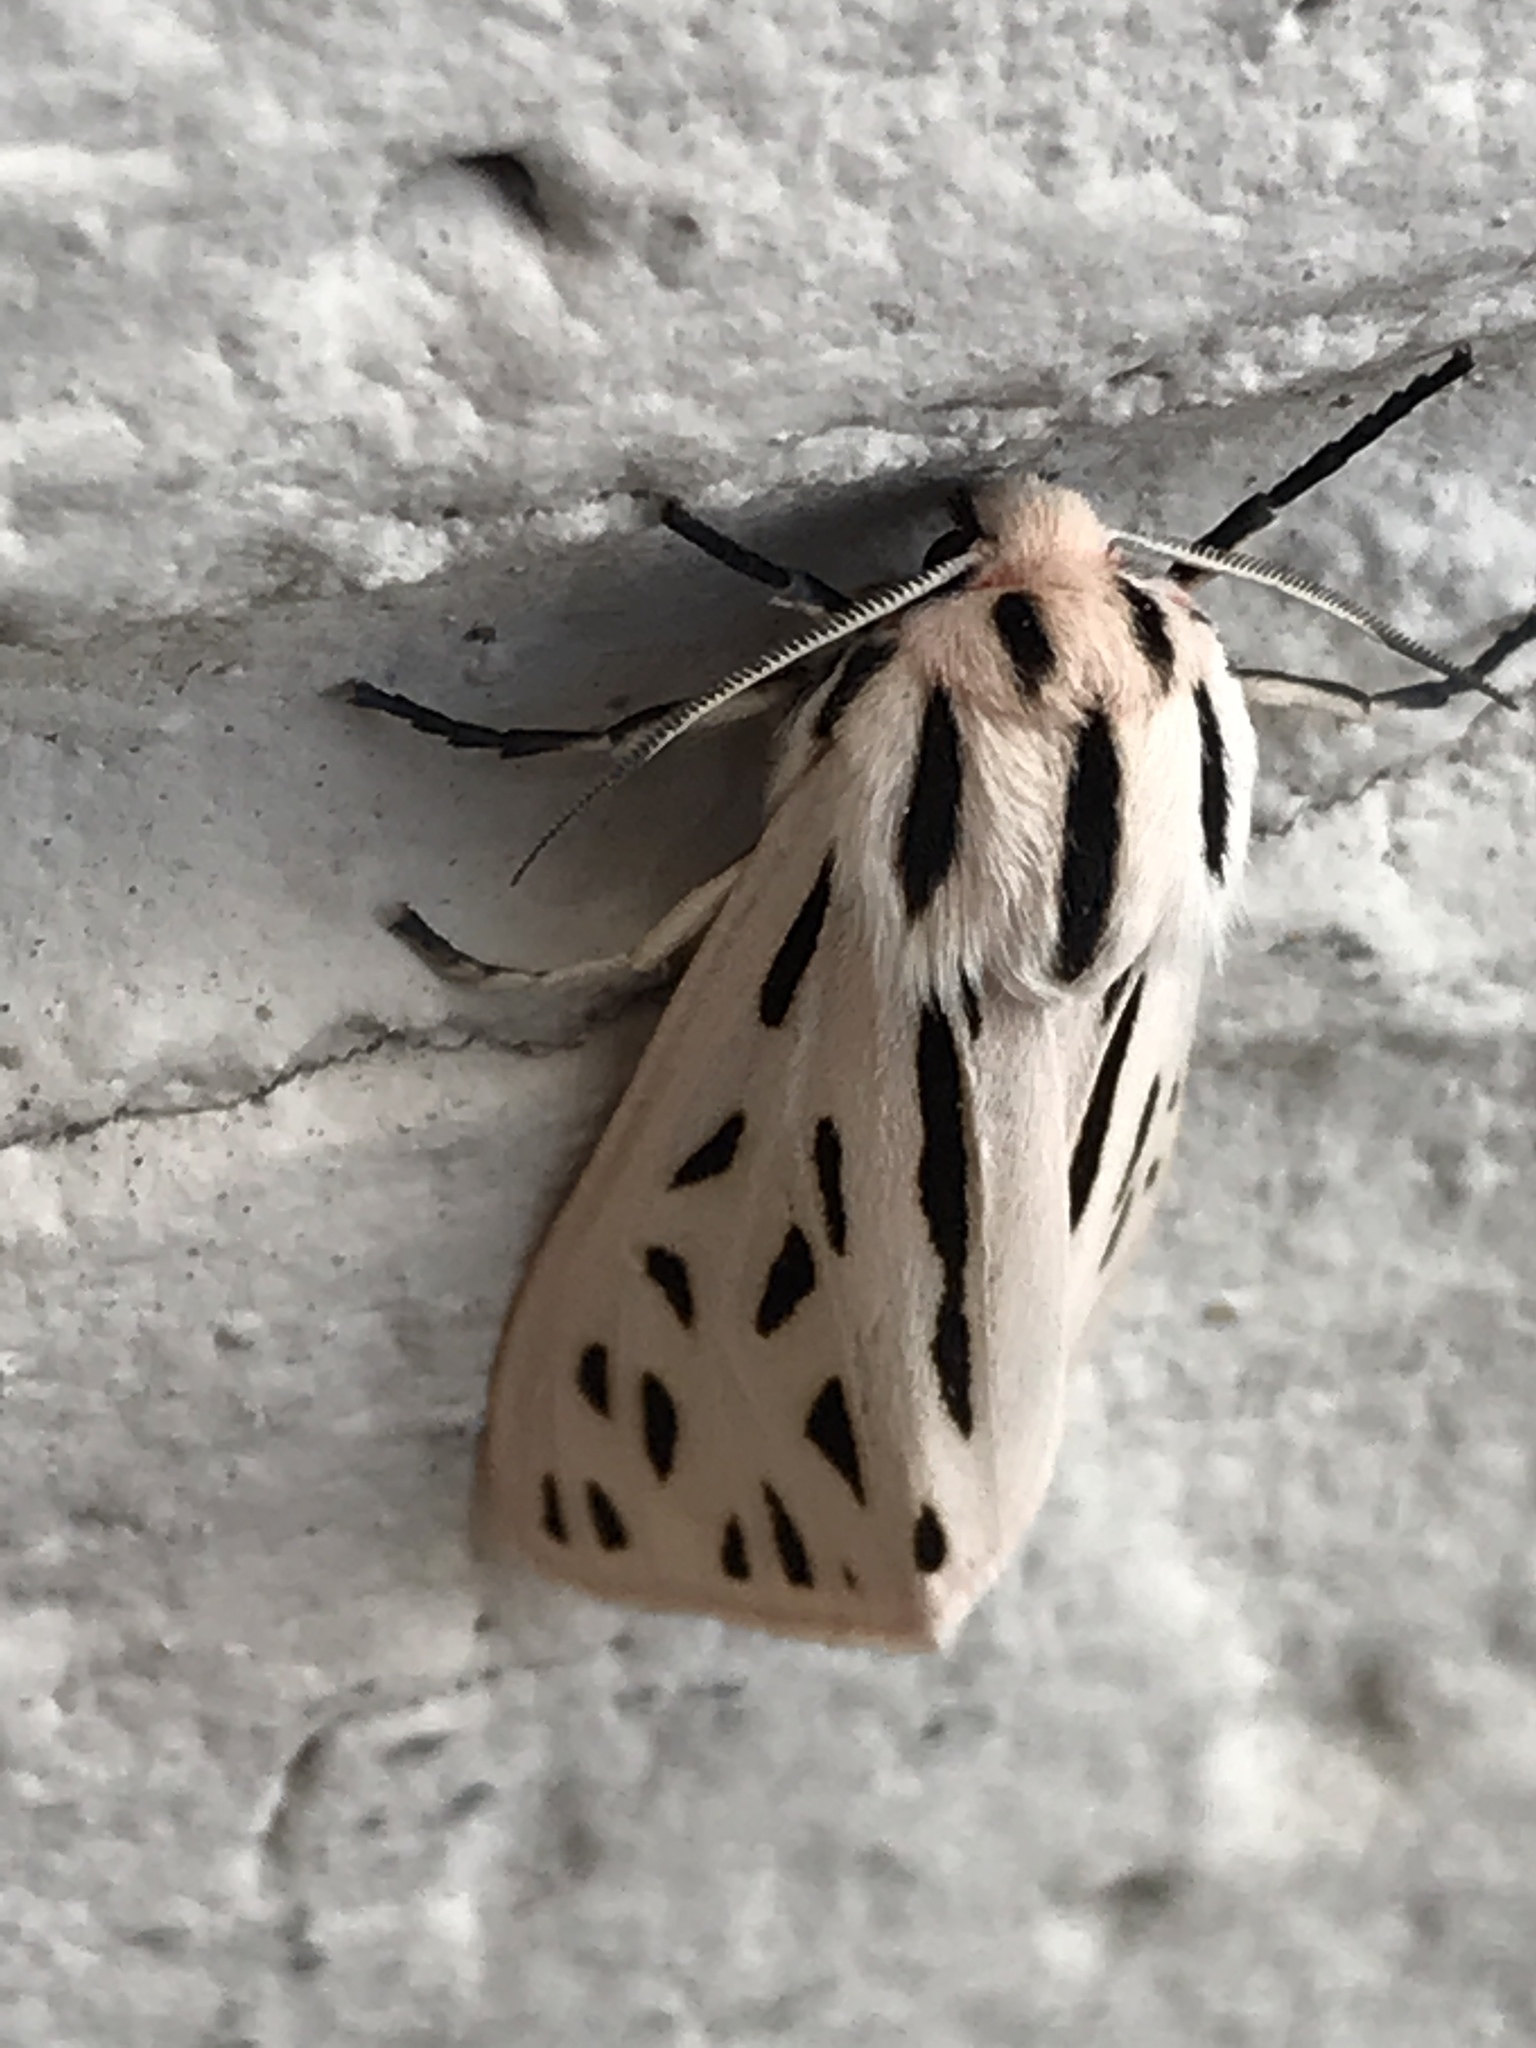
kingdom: Animalia
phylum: Arthropoda
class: Insecta
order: Lepidoptera
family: Erebidae
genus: Apantesis
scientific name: Apantesis arge
